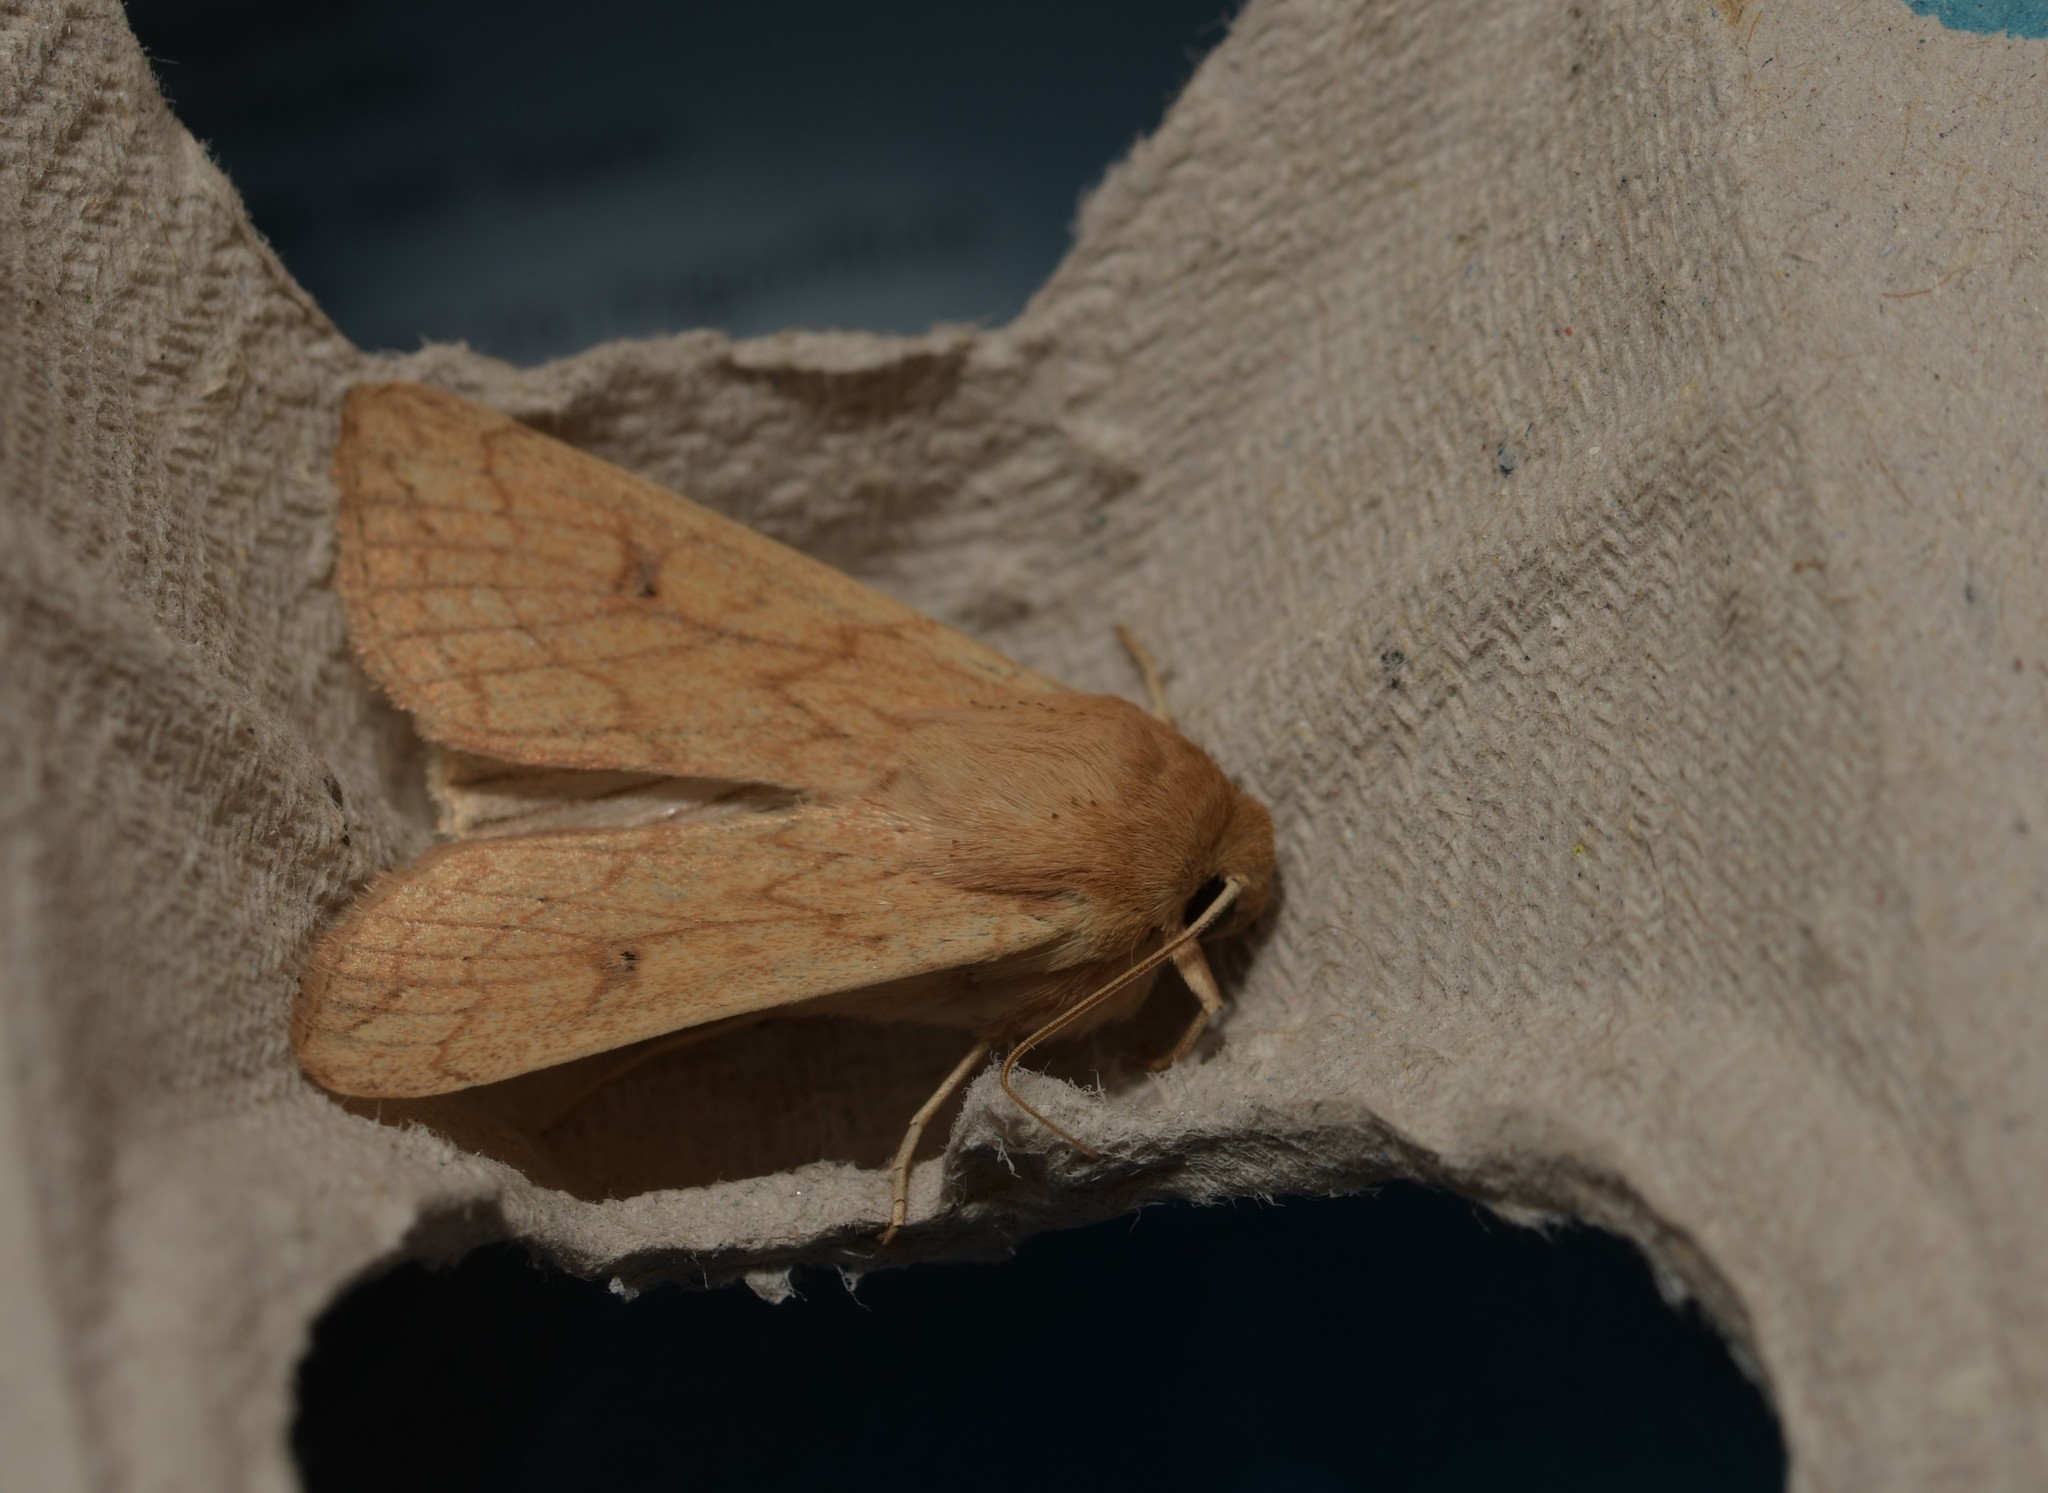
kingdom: Animalia
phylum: Arthropoda
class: Insecta
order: Lepidoptera
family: Noctuidae
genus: Mythimna
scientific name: Mythimna vitellina
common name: Delicate
